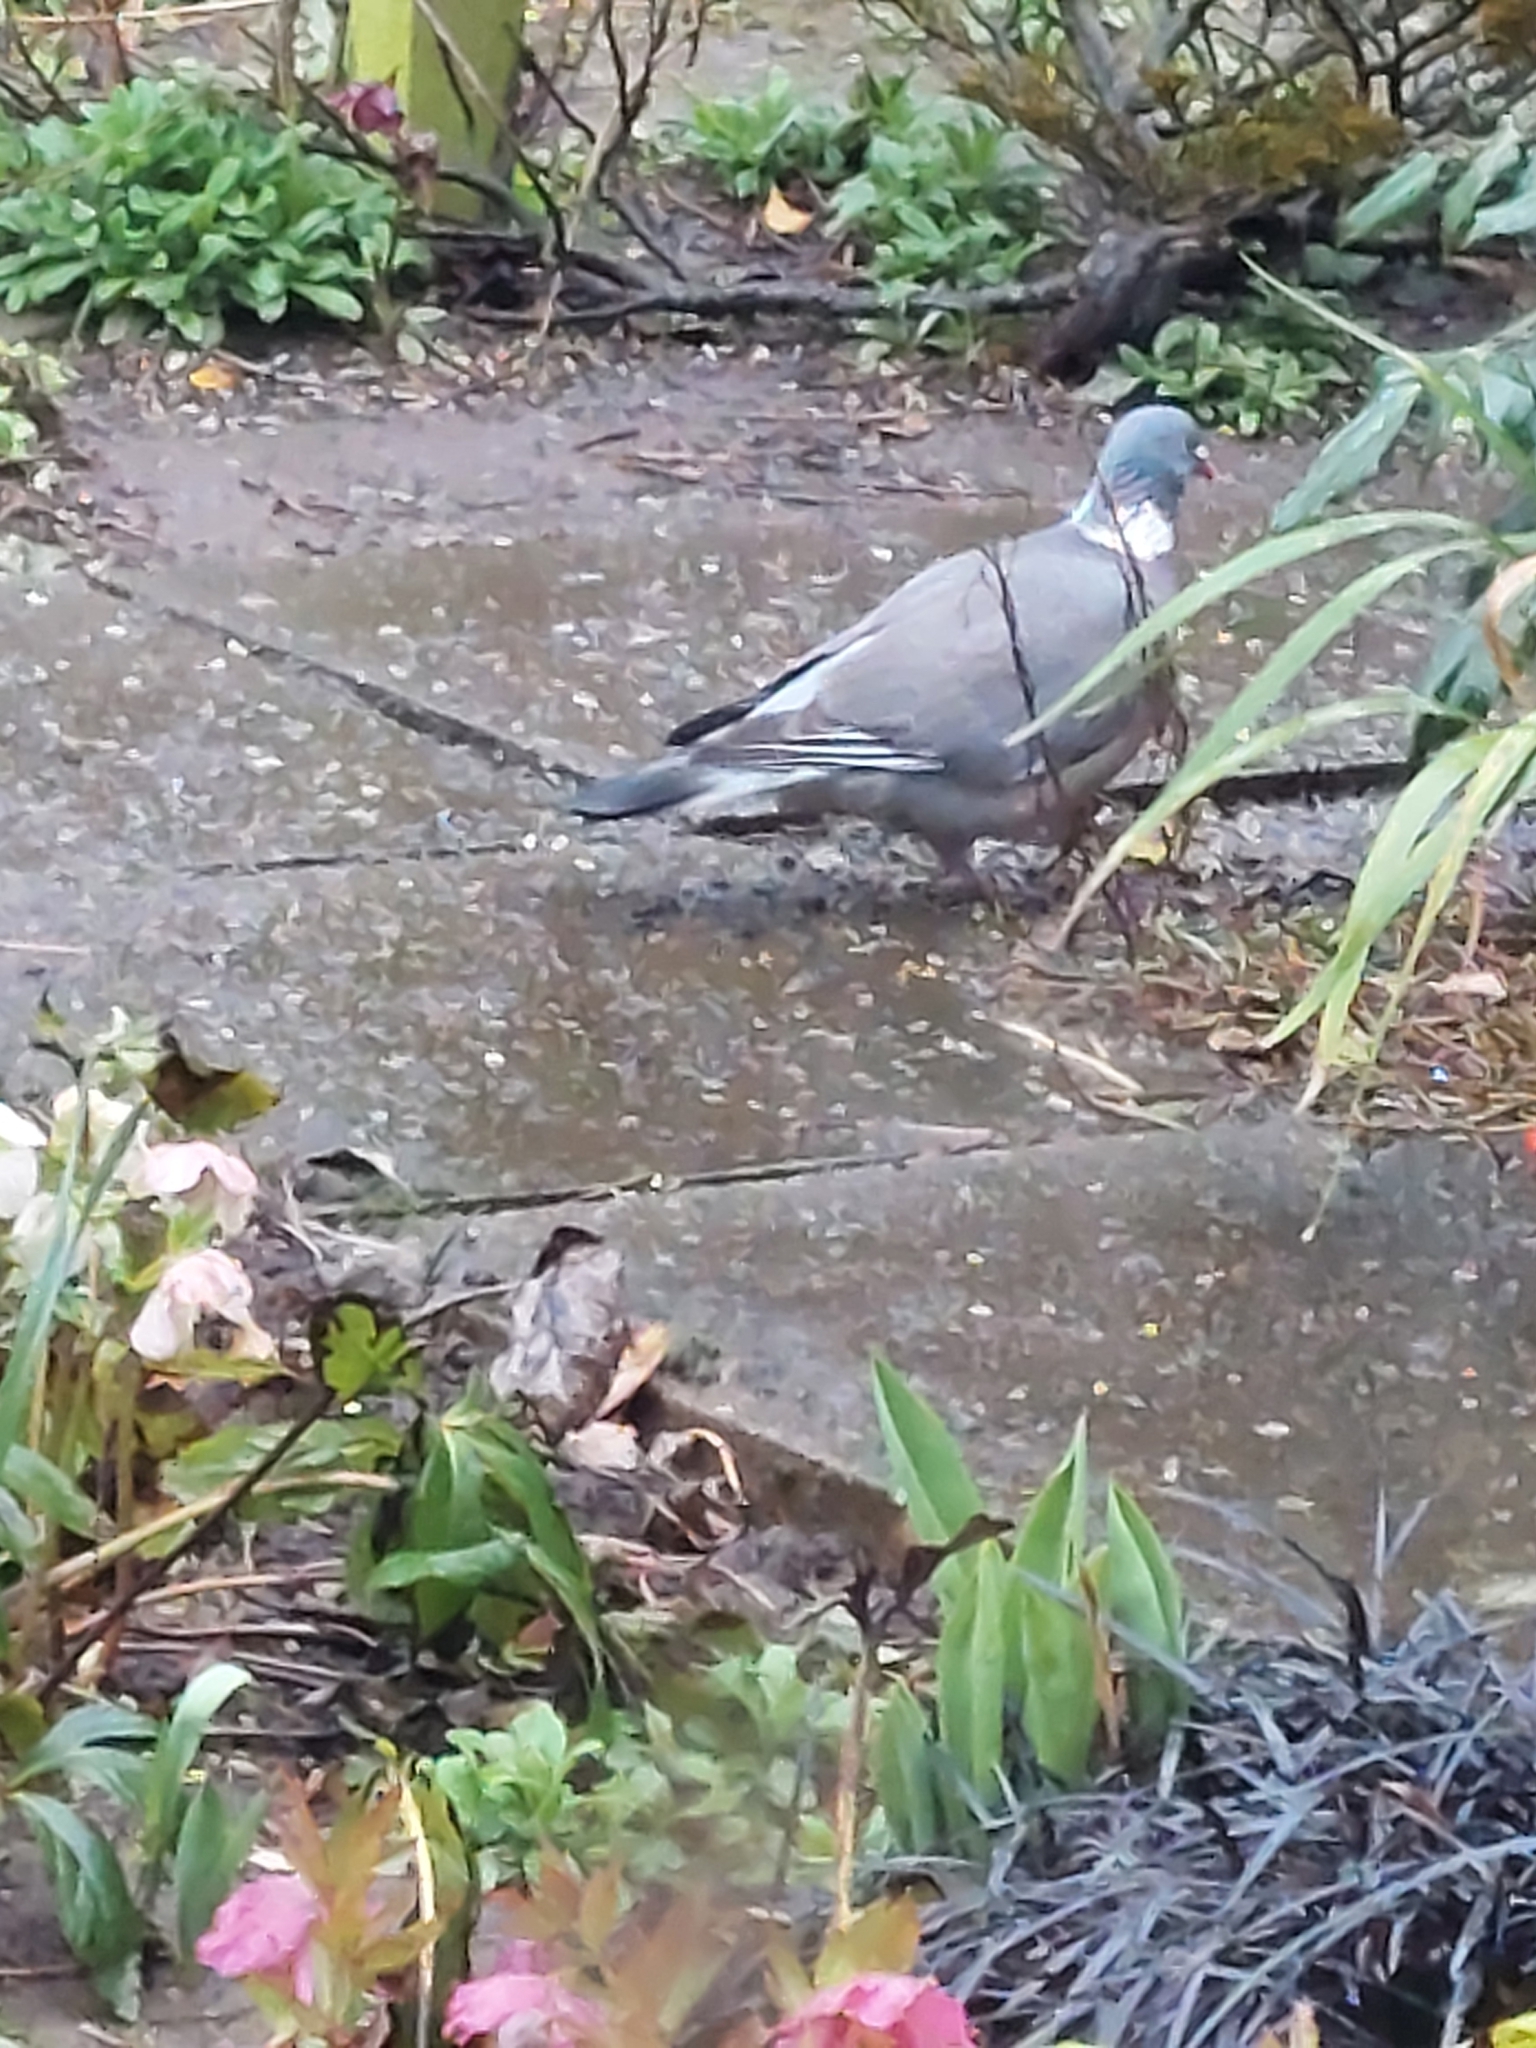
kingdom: Animalia
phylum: Chordata
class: Aves
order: Columbiformes
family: Columbidae
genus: Columba
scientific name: Columba palumbus
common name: Common wood pigeon
